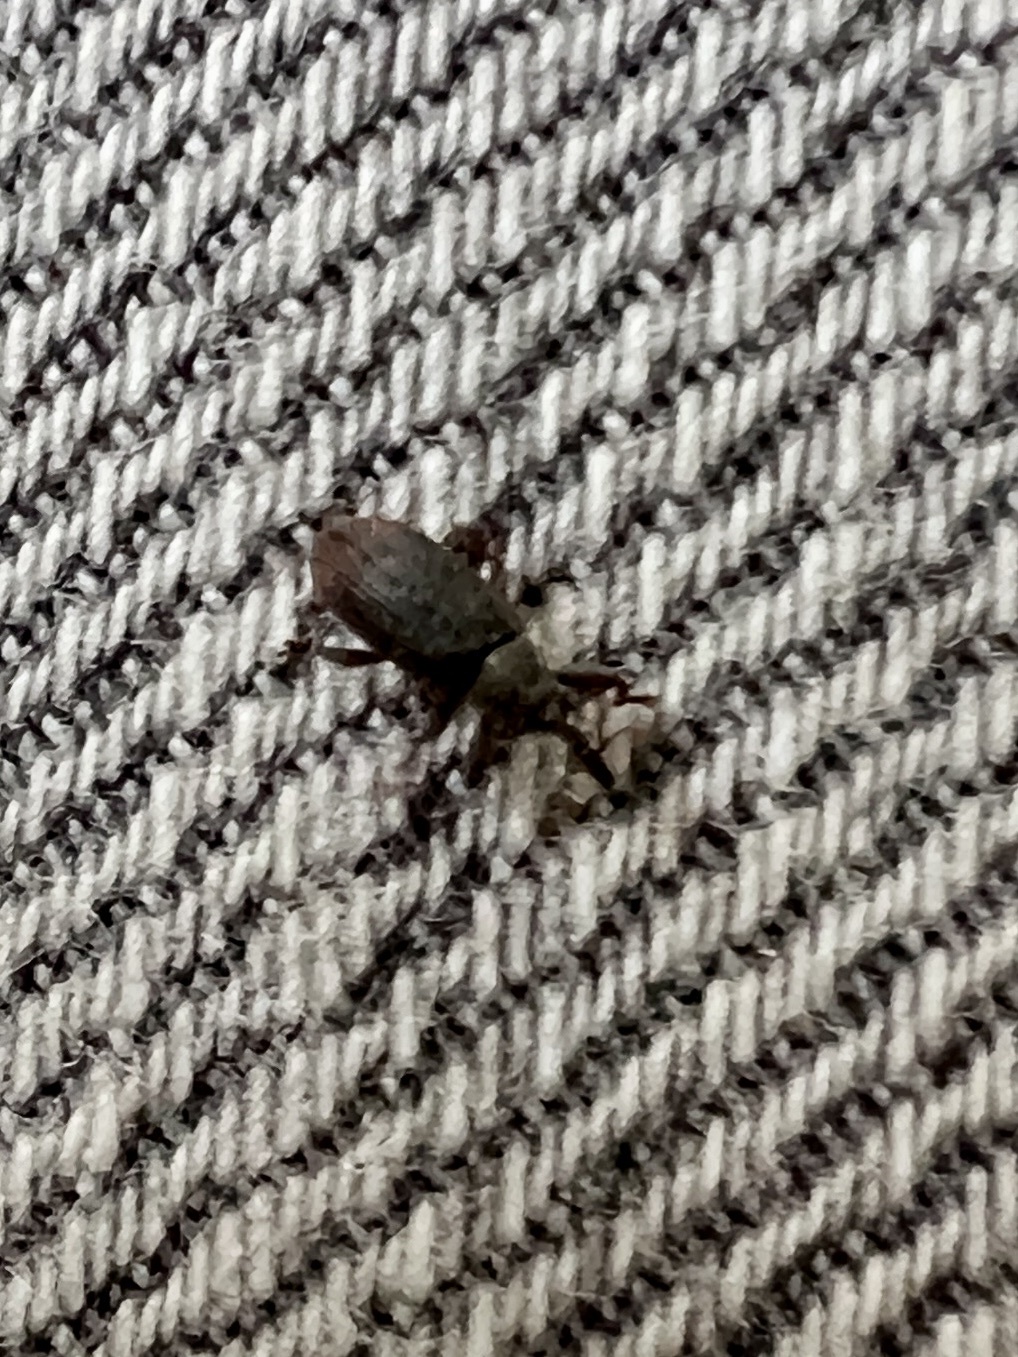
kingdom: Animalia
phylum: Arthropoda
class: Insecta
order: Coleoptera
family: Curculionidae
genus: Bradybatus
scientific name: Bradybatus kellneri
